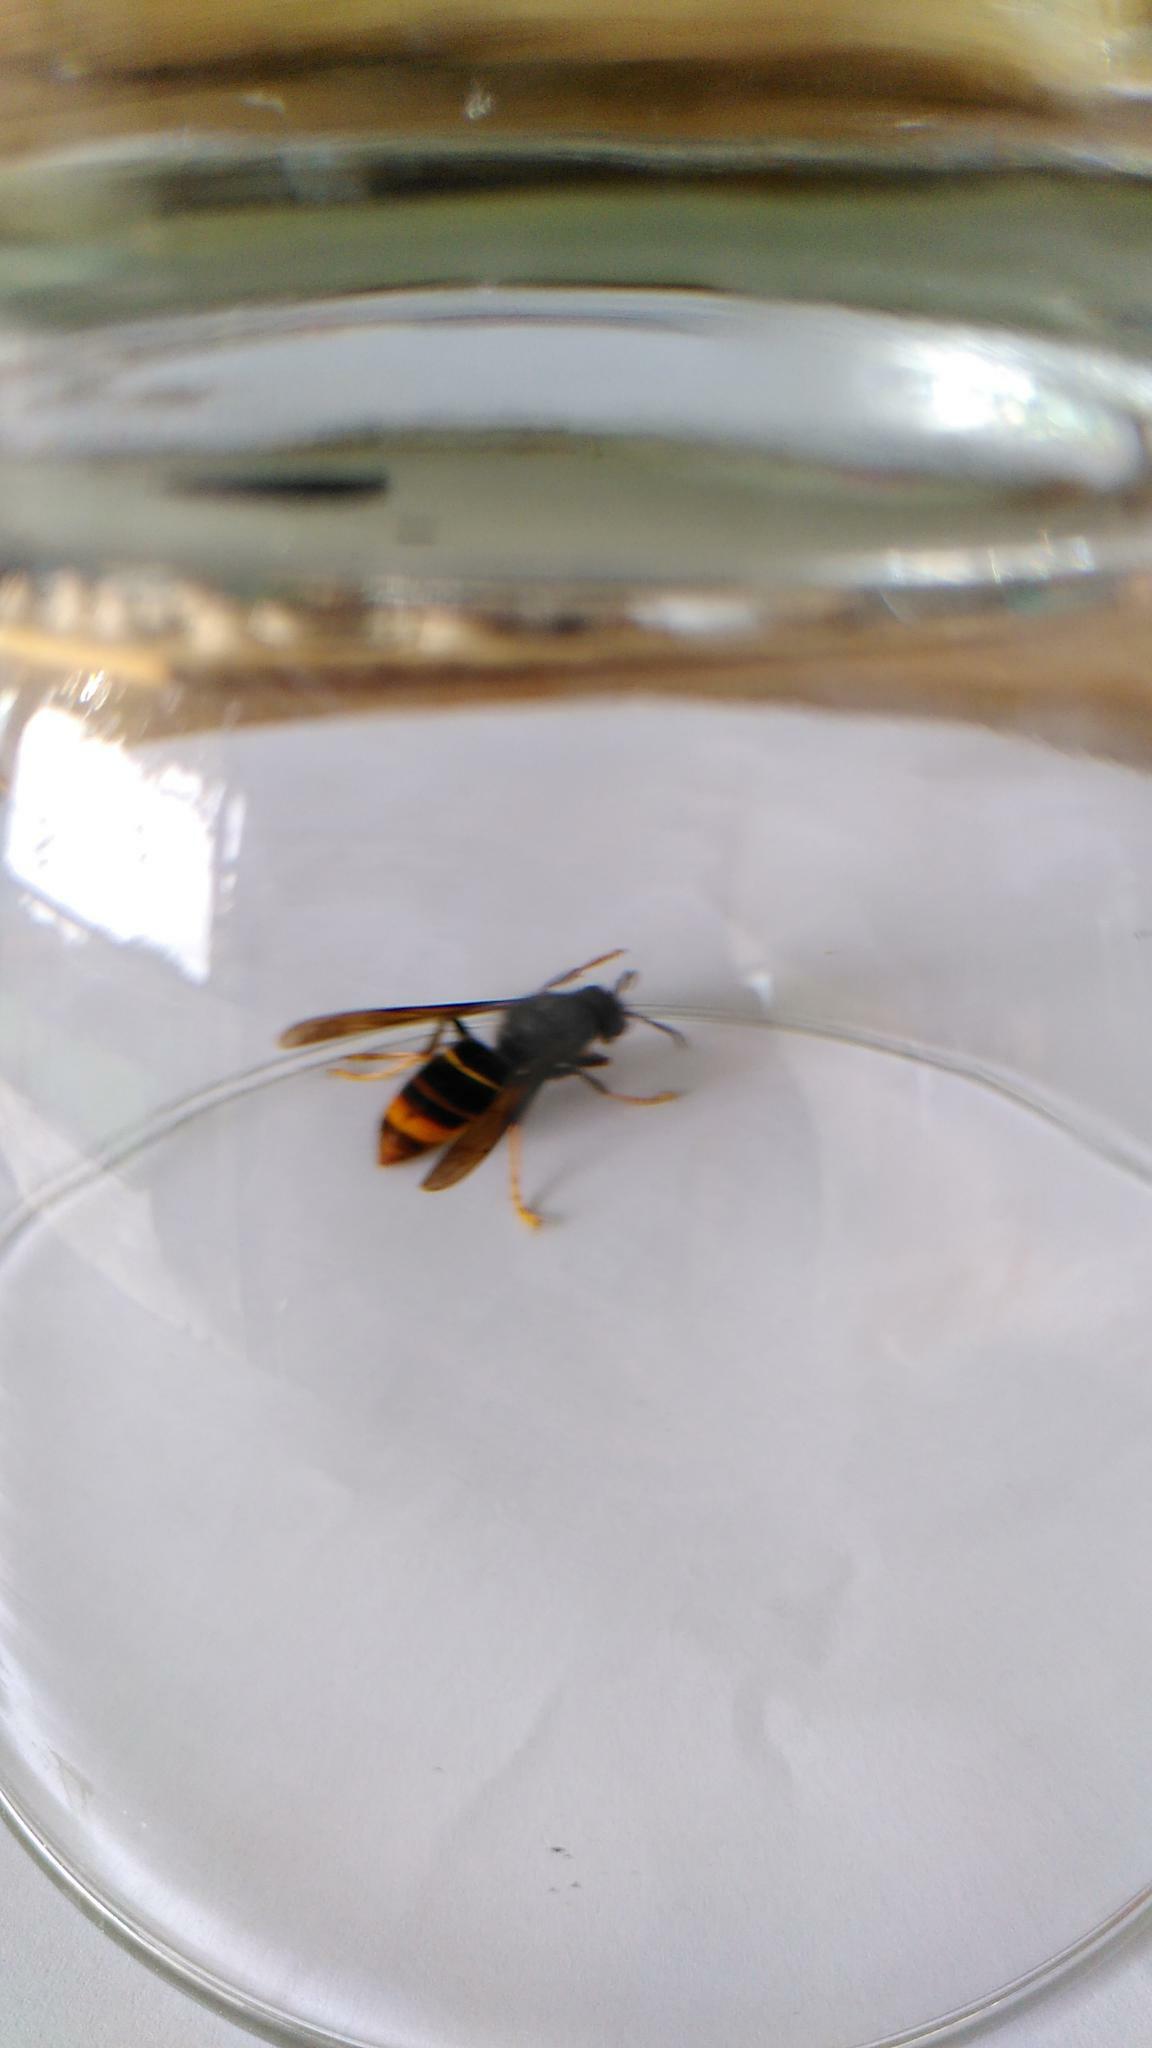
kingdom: Animalia
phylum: Arthropoda
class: Insecta
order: Hymenoptera
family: Vespidae
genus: Vespa
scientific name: Vespa velutina
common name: Asian hornet
